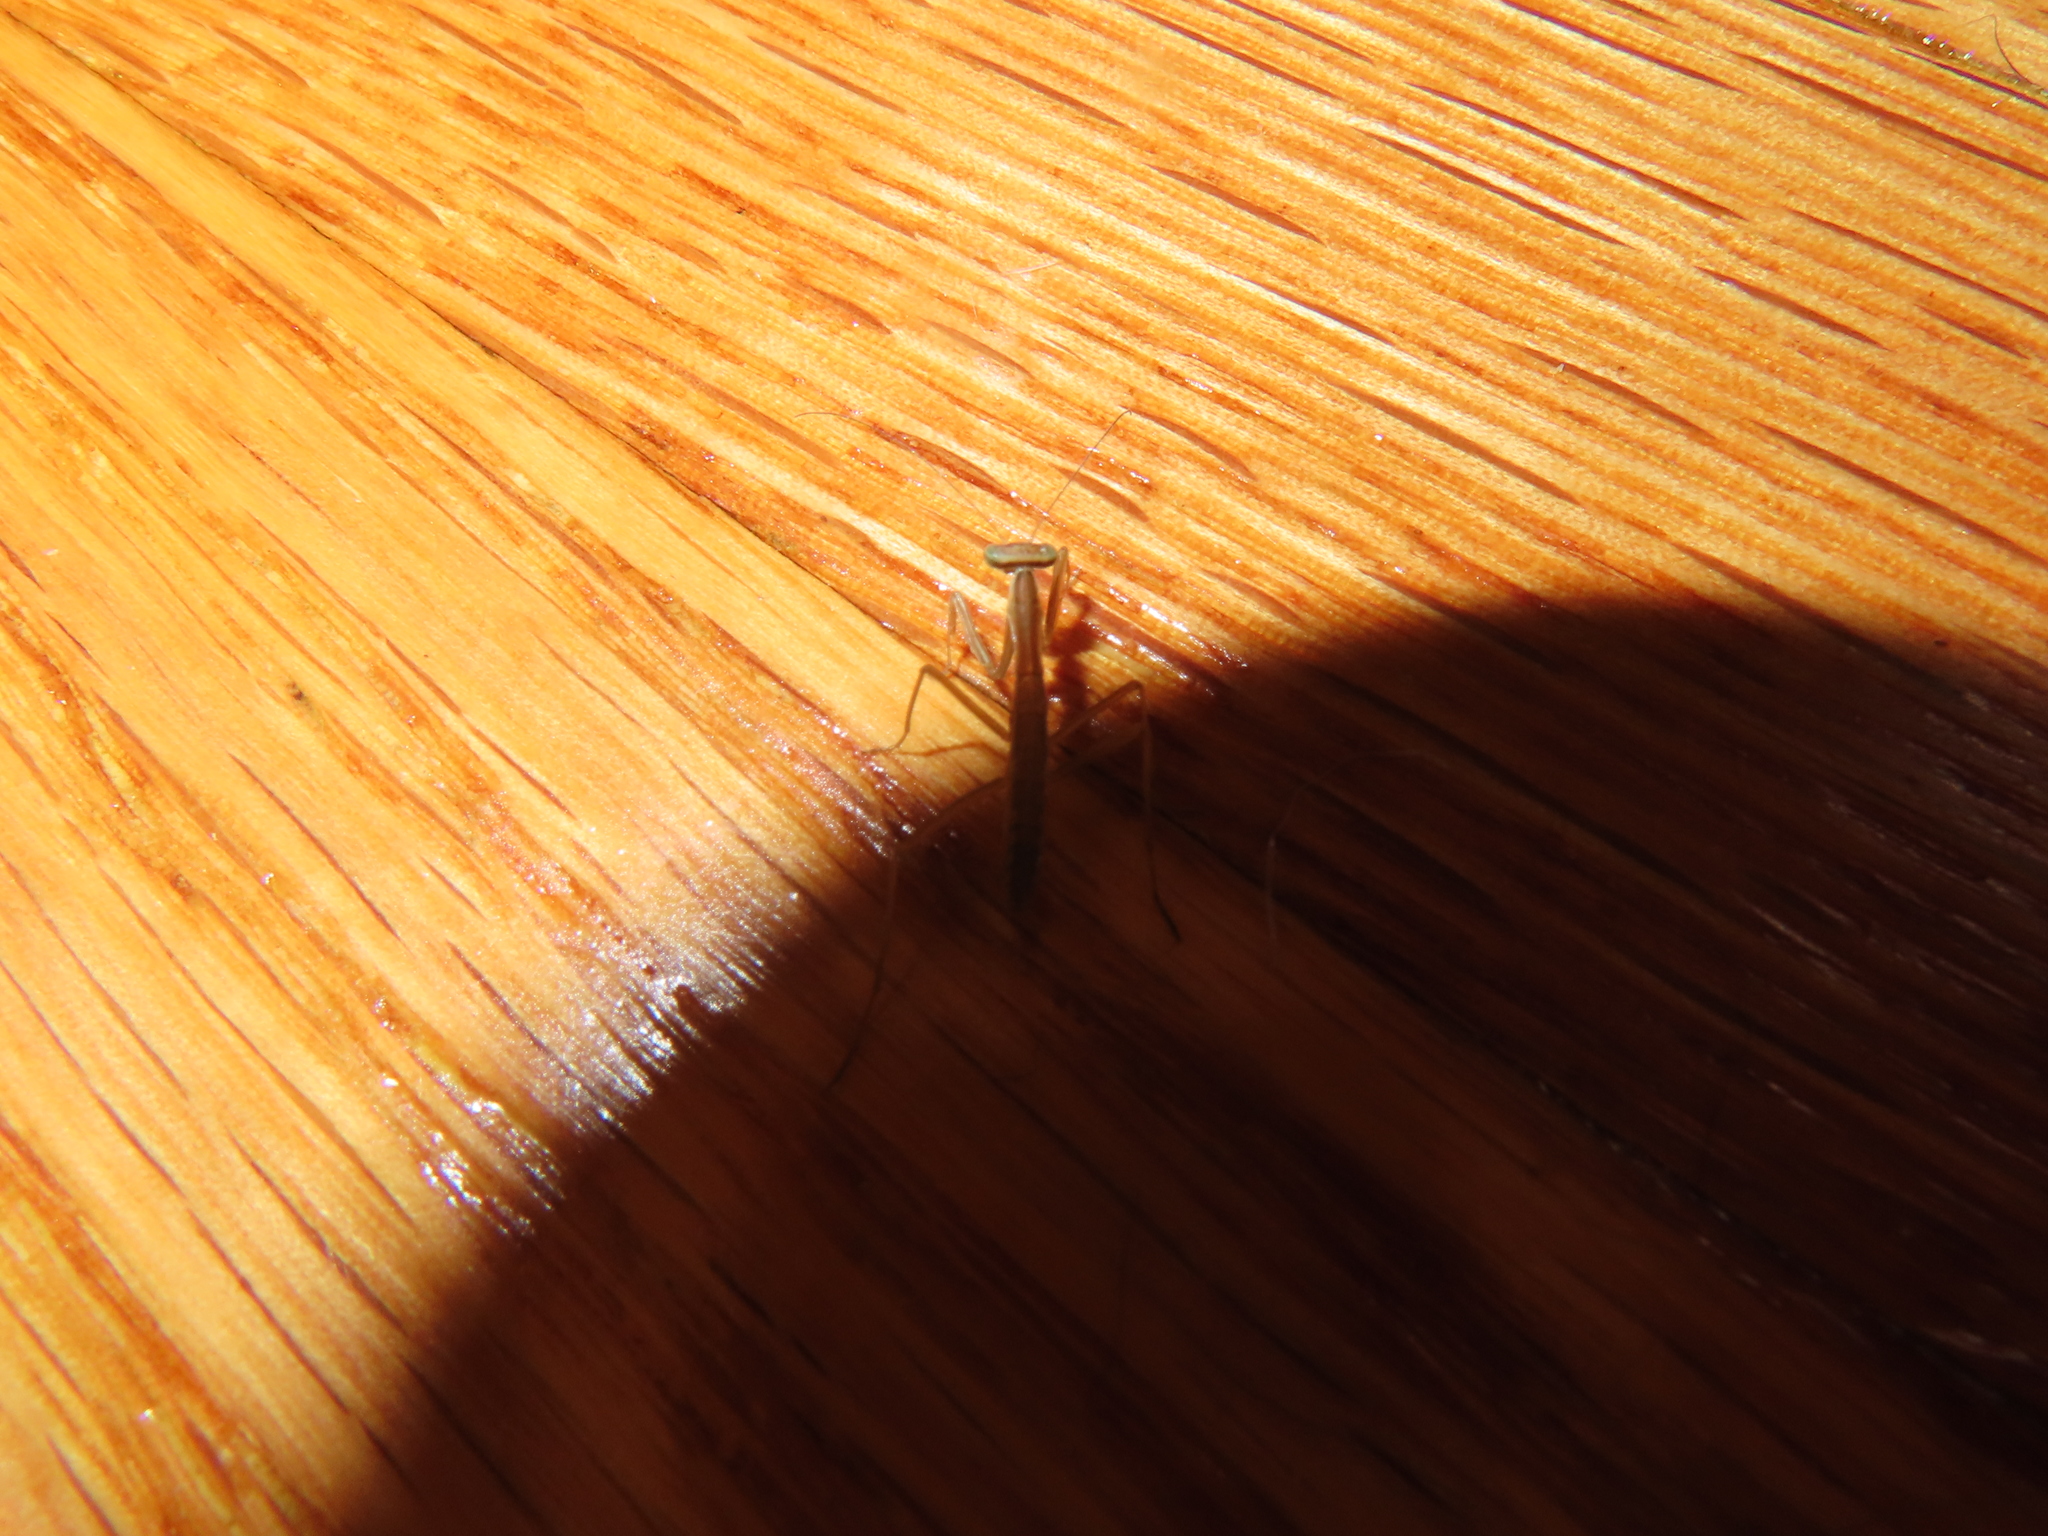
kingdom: Animalia
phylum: Arthropoda
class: Insecta
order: Mantodea
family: Mantidae
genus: Tenodera
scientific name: Tenodera sinensis
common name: Chinese mantis
